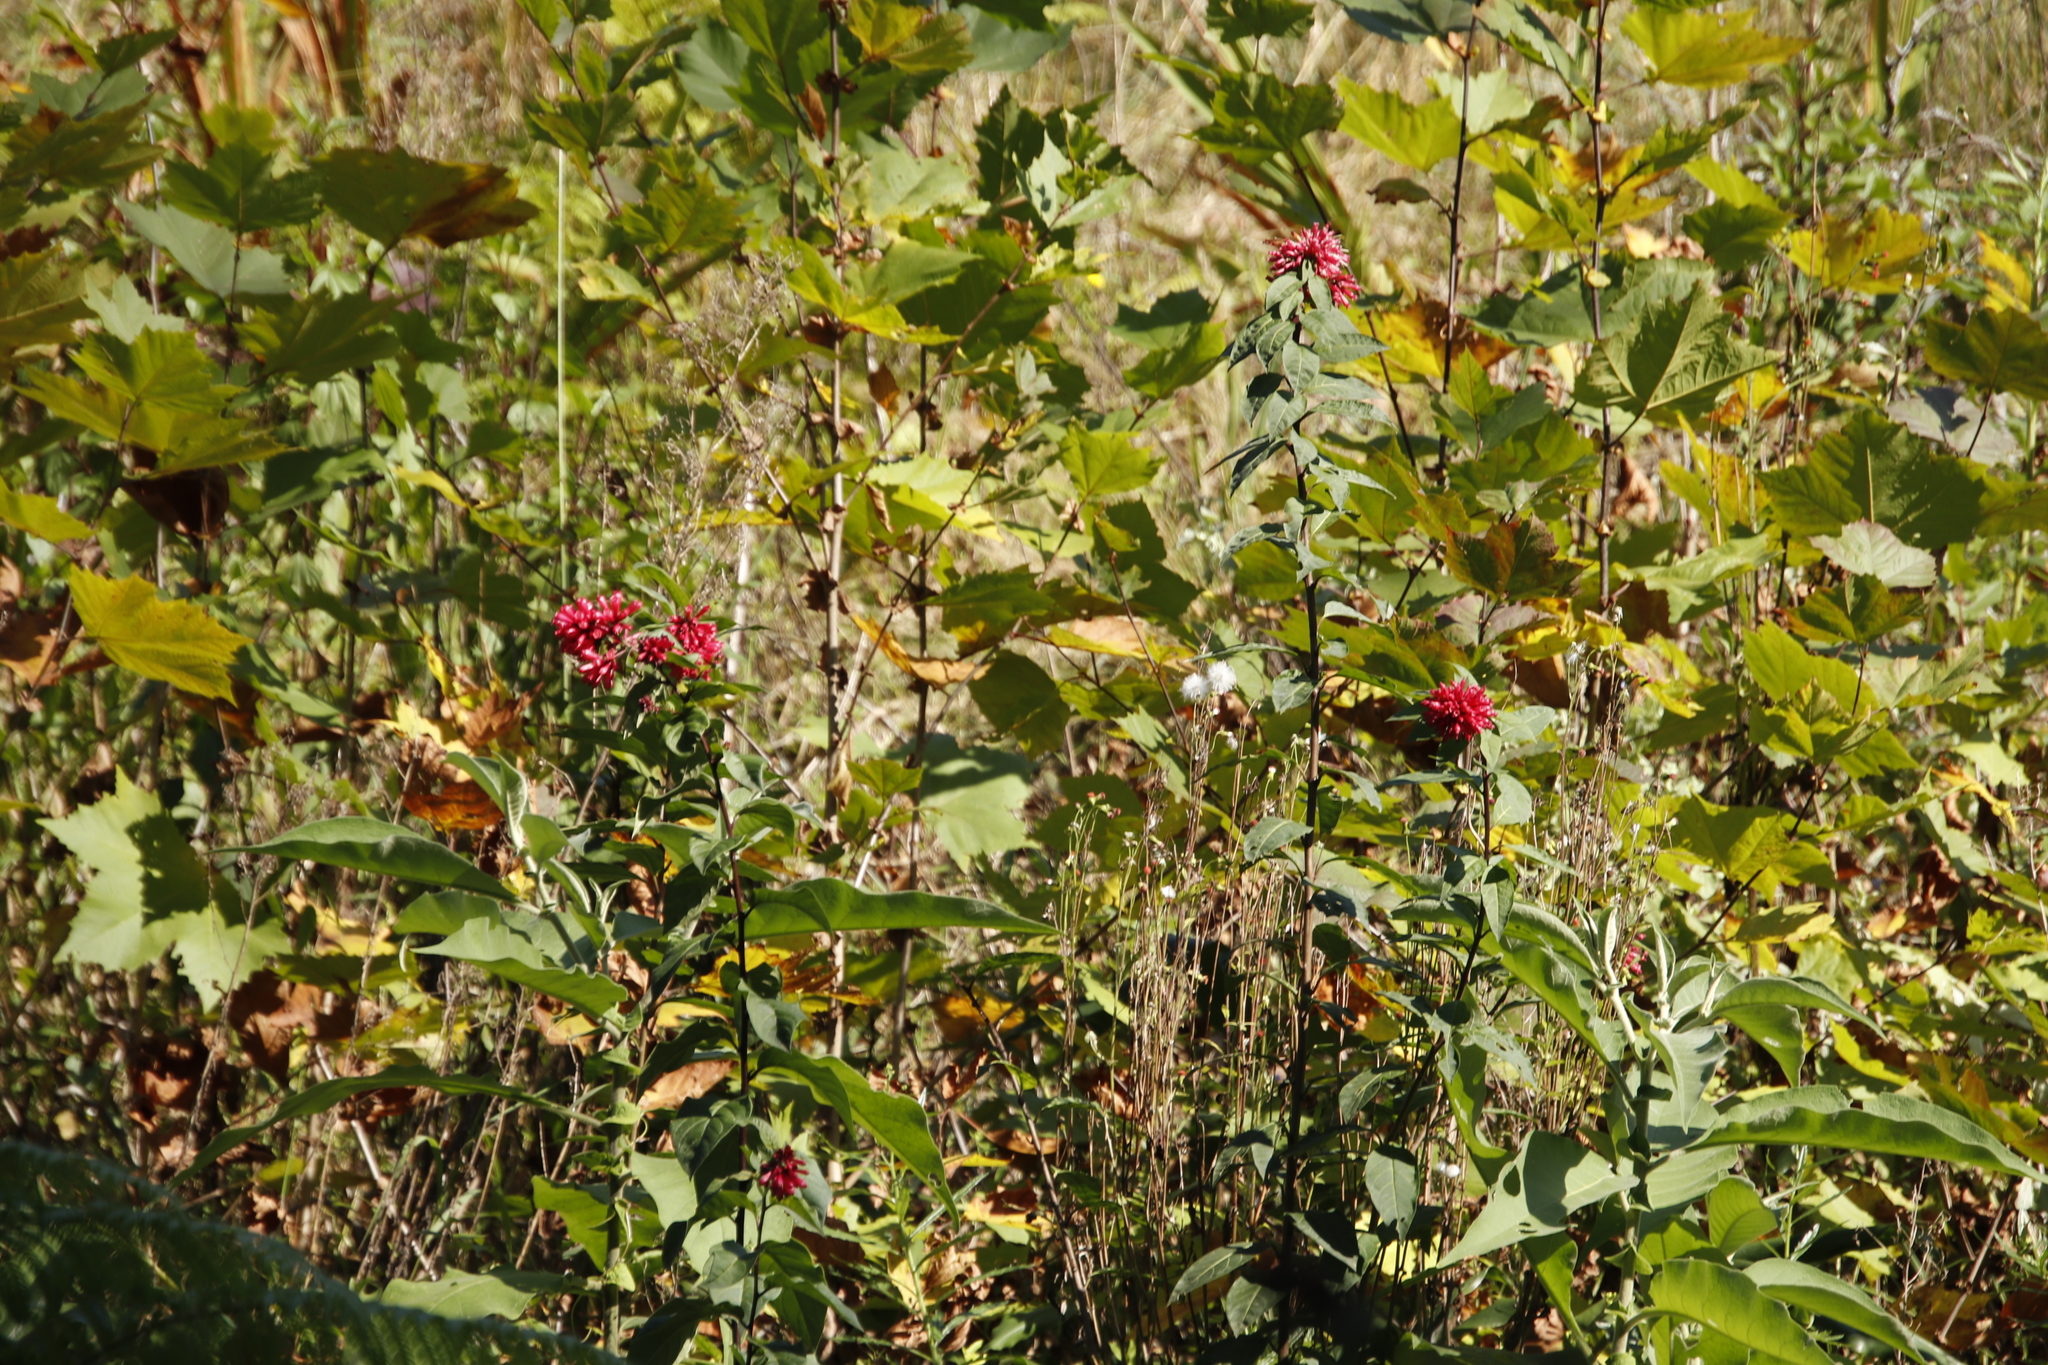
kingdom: Plantae
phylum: Tracheophyta
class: Magnoliopsida
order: Solanales
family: Solanaceae
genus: Cestrum
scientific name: Cestrum elegans
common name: Crimson cestrum
